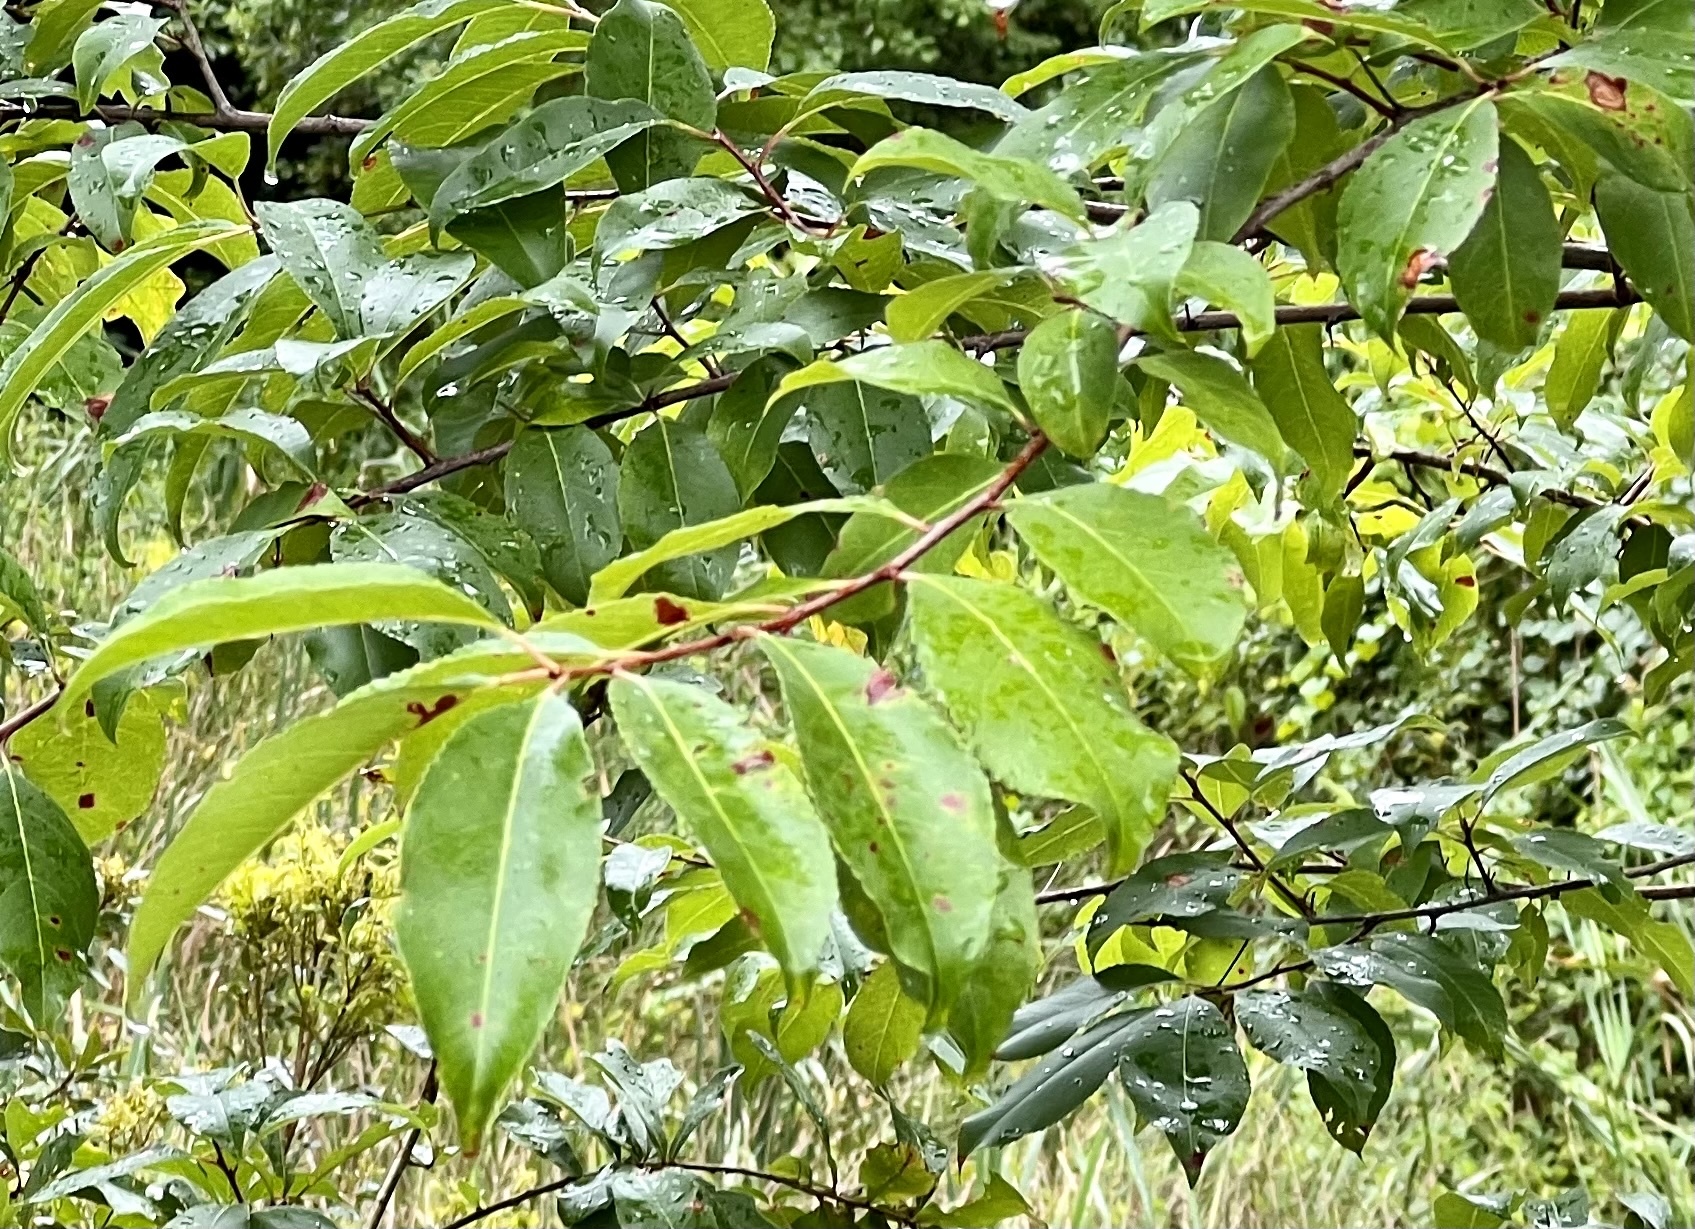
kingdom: Plantae
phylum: Tracheophyta
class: Magnoliopsida
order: Rosales
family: Rosaceae
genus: Prunus
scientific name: Prunus serotina
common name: Black cherry
